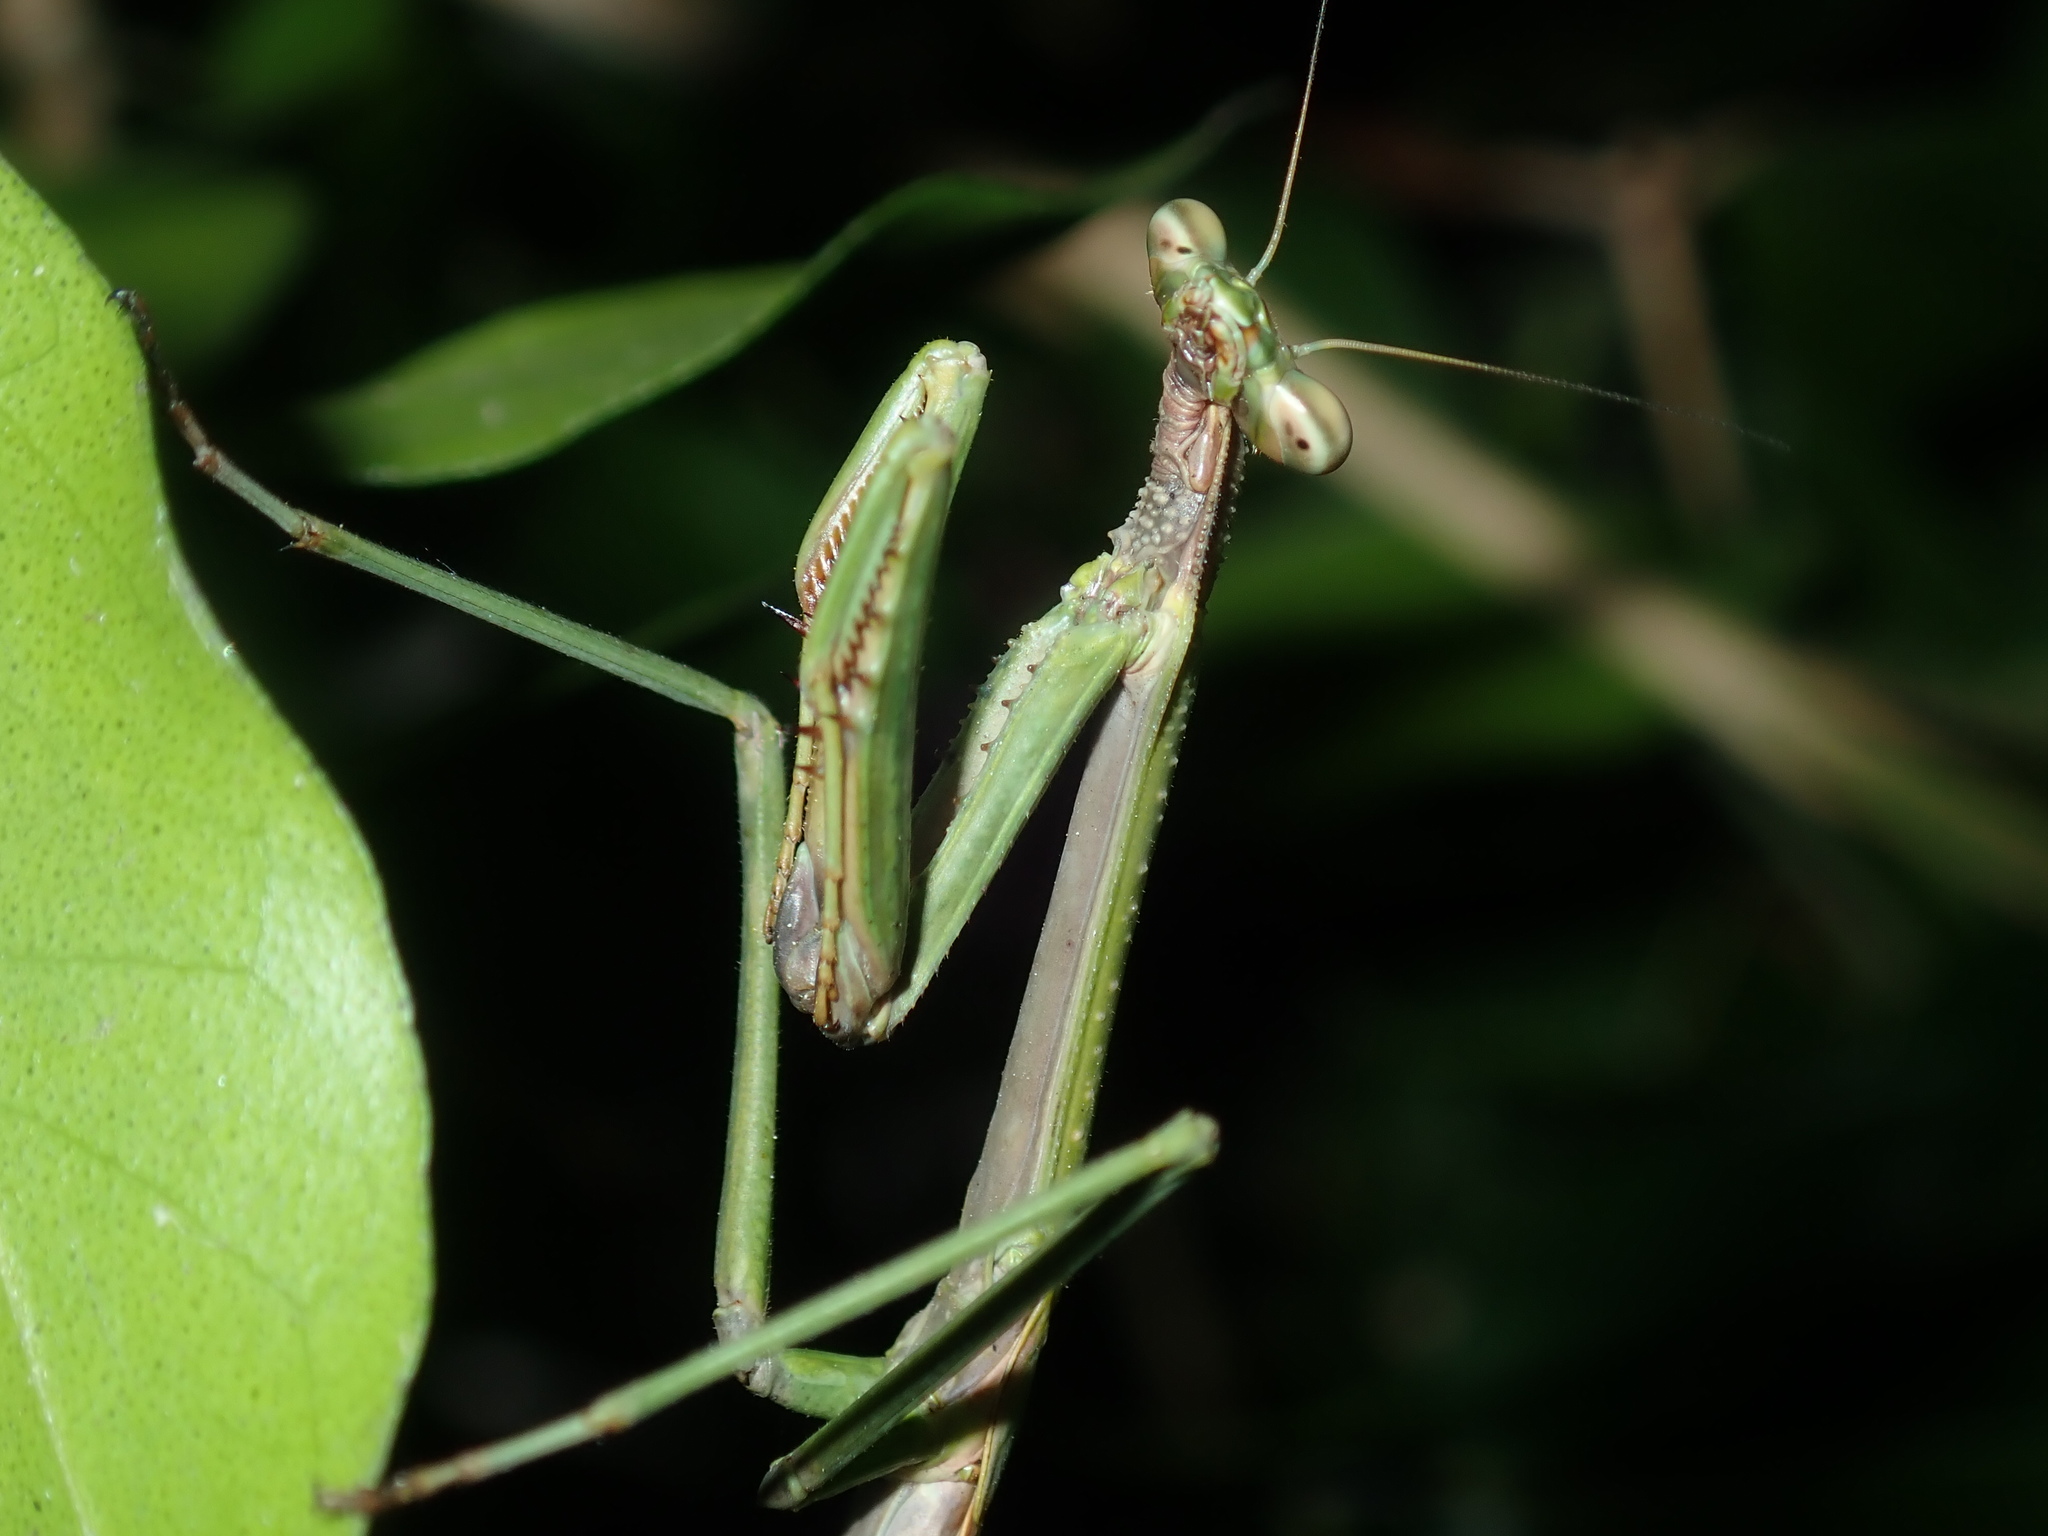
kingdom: Animalia
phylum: Arthropoda
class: Insecta
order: Mantodea
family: Mantidae
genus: Archimantis
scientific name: Archimantis latistyla
